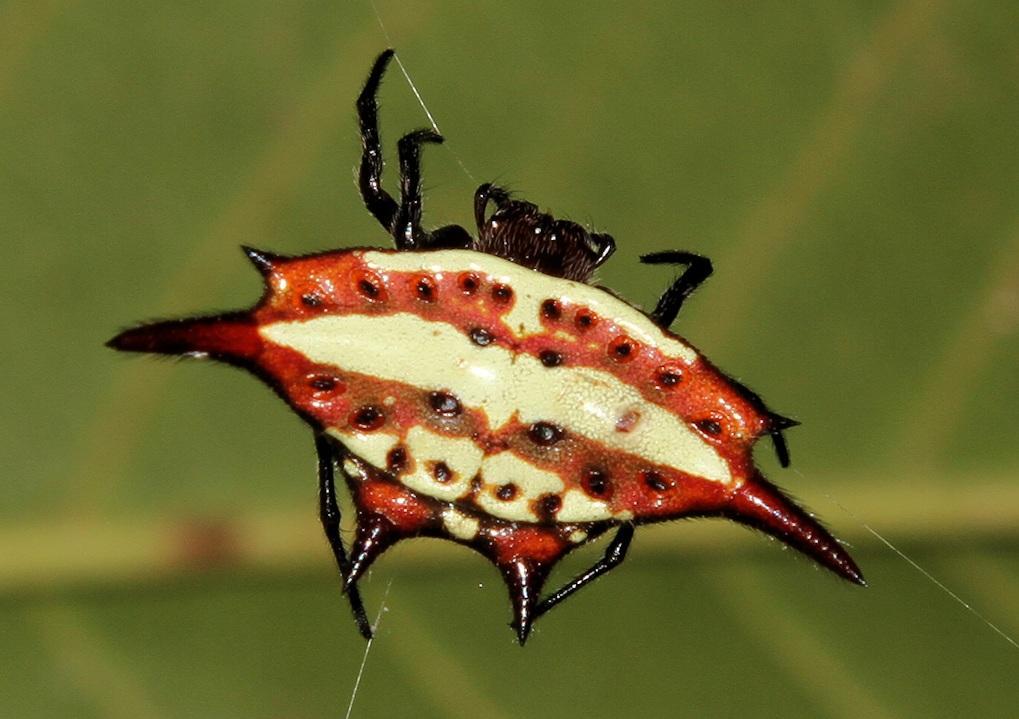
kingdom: Animalia
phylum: Arthropoda
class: Arachnida
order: Araneae
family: Araneidae
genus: Gasteracantha
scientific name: Gasteracantha versicolor
